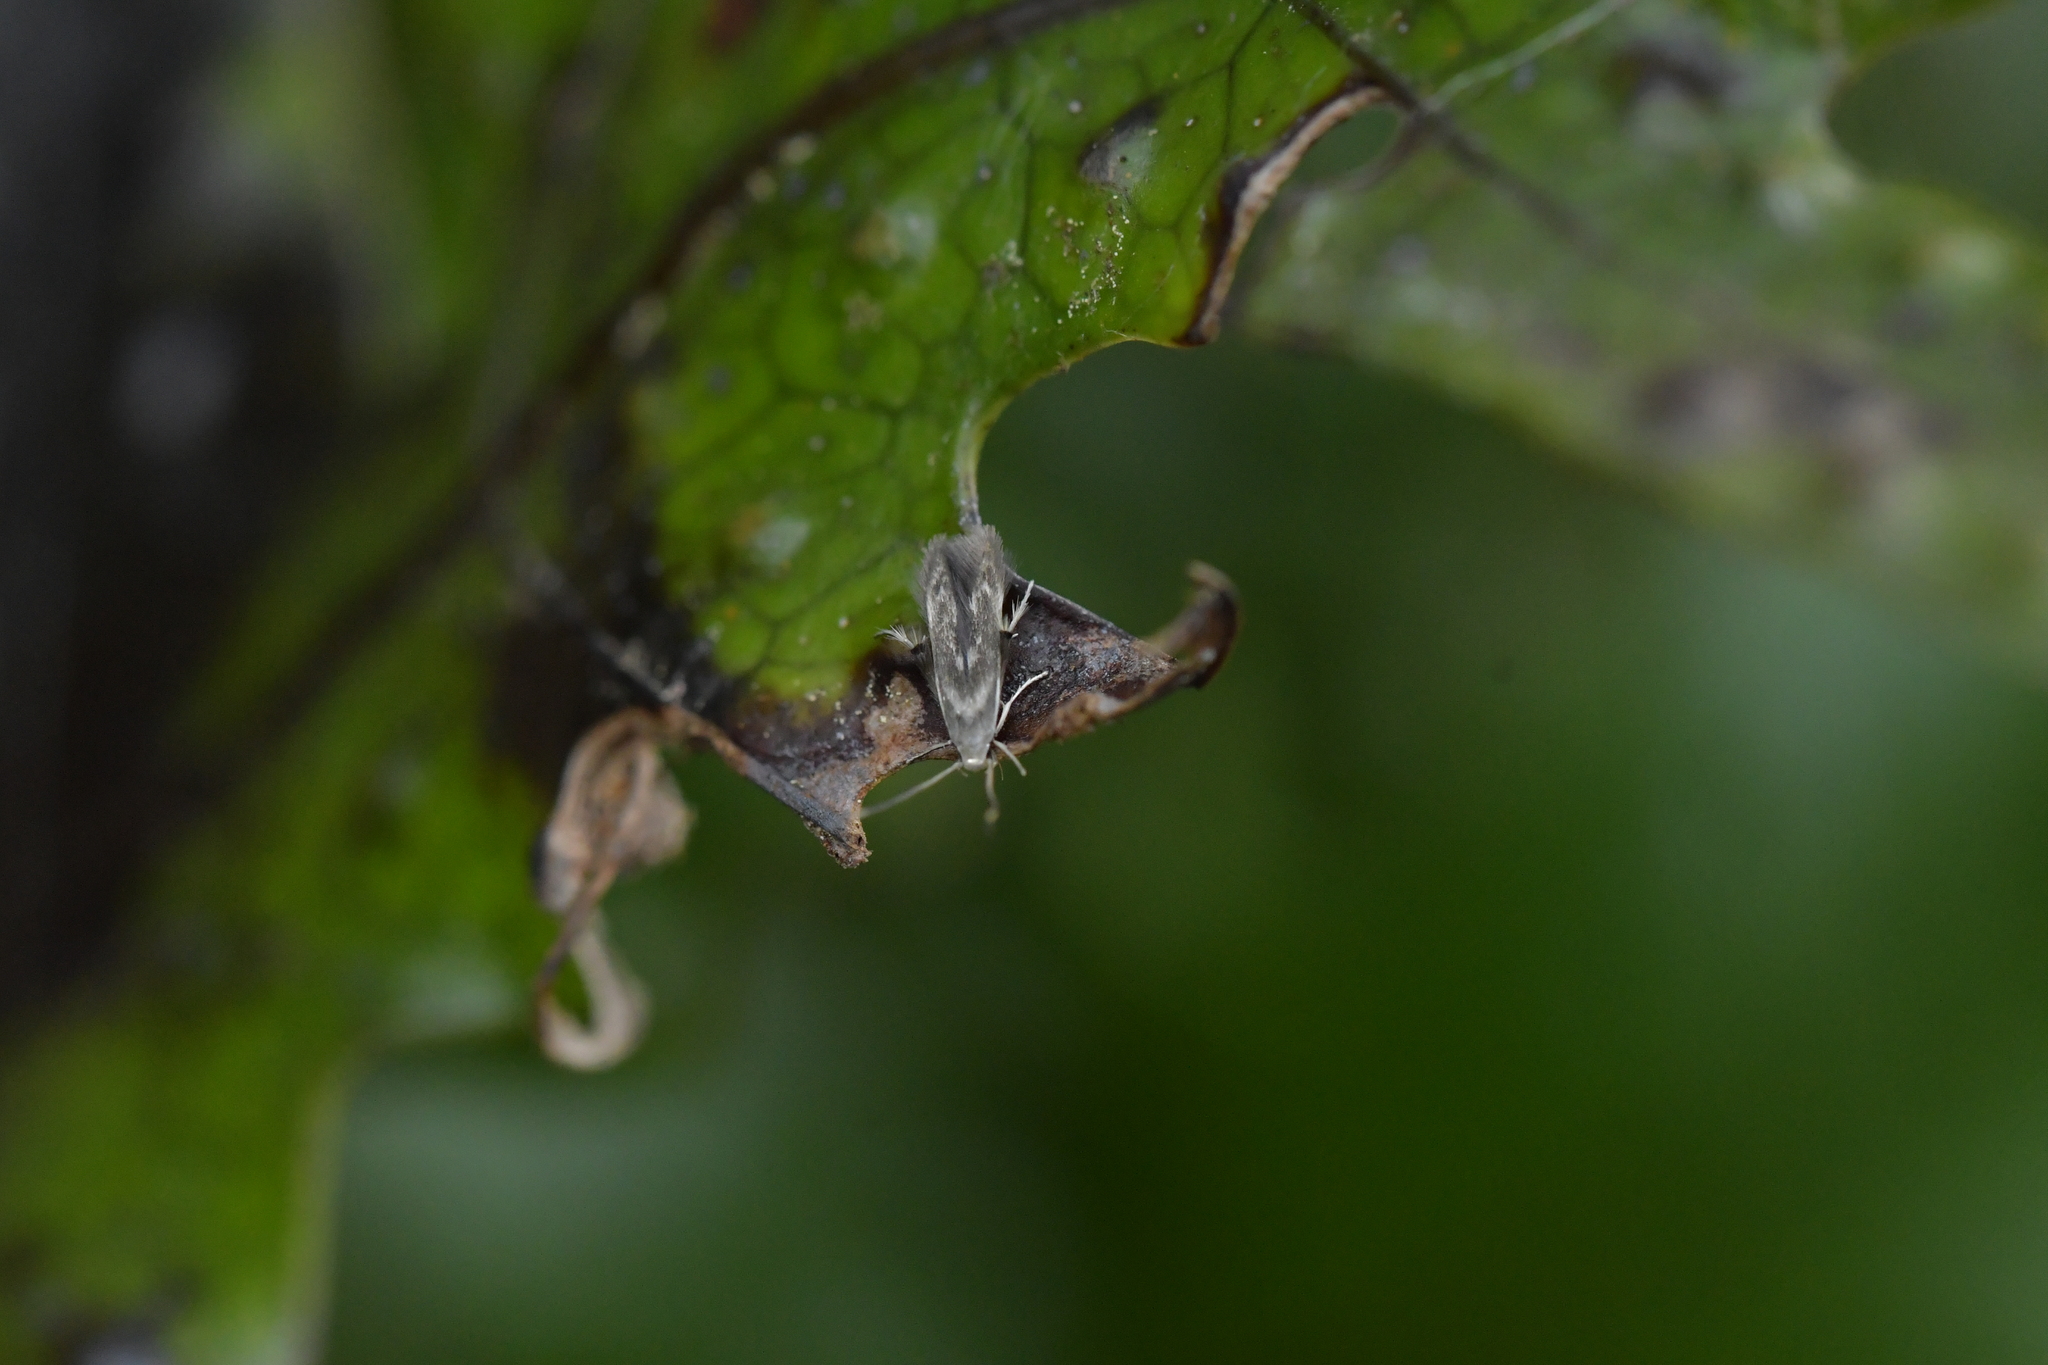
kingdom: Animalia
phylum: Arthropoda
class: Insecta
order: Lepidoptera
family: Stathmopodidae
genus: Thylacosceles
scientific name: Thylacosceles radians
